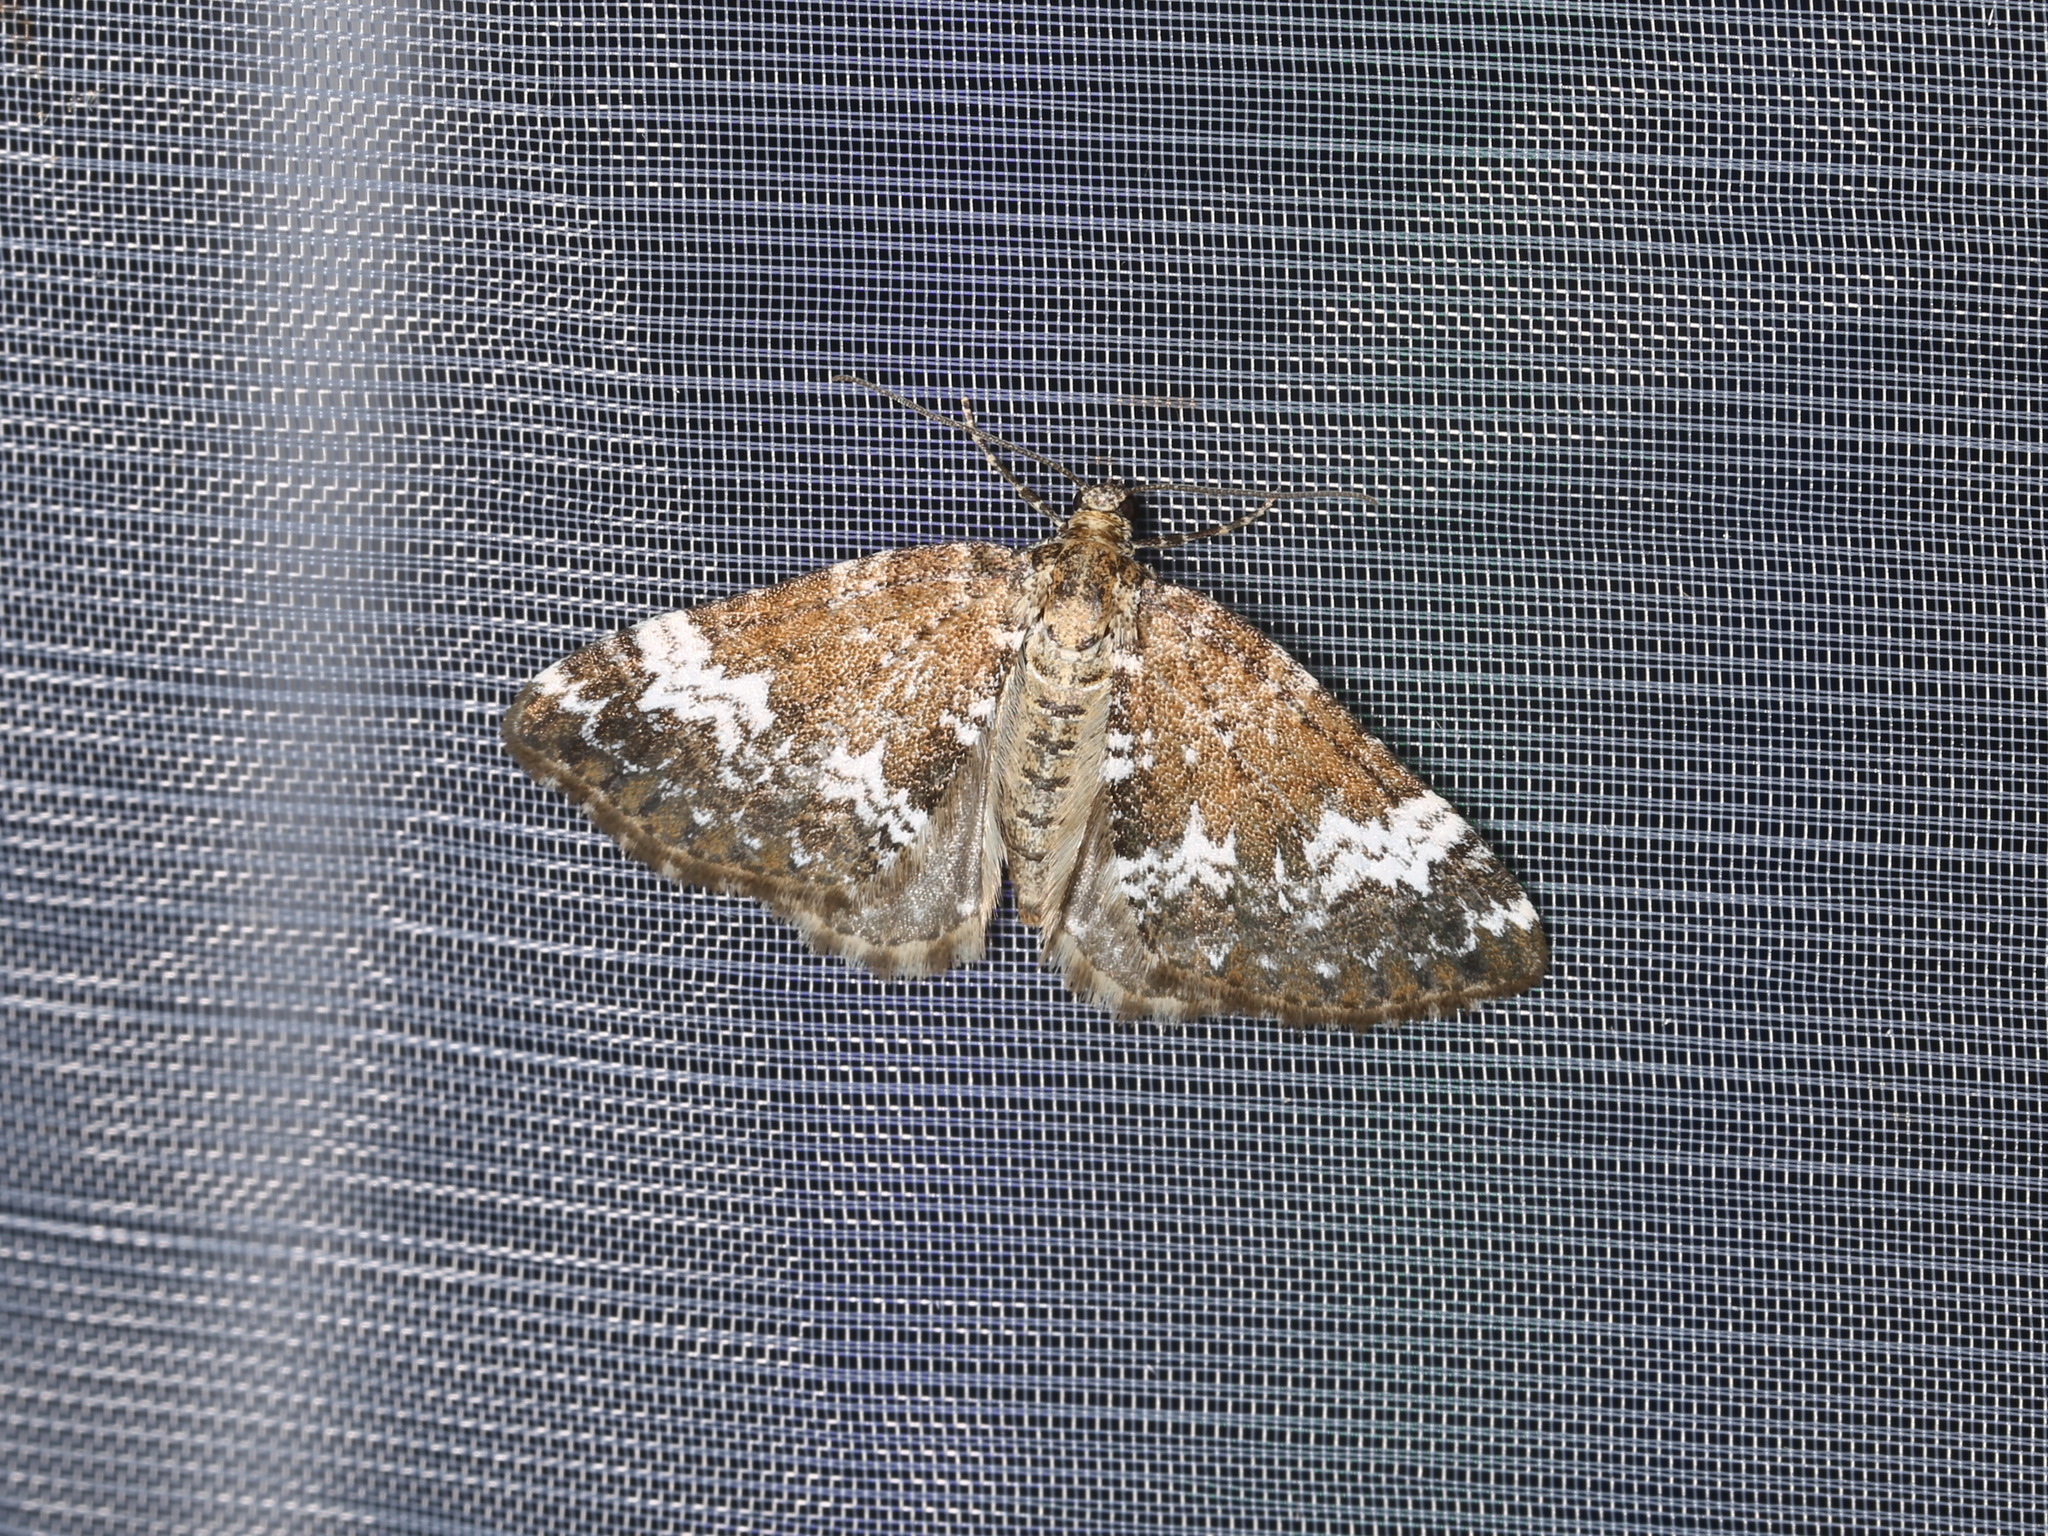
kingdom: Animalia
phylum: Arthropoda
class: Insecta
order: Lepidoptera
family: Geometridae
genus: Perizoma
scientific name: Perizoma alchemillata
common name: Small rivulet
